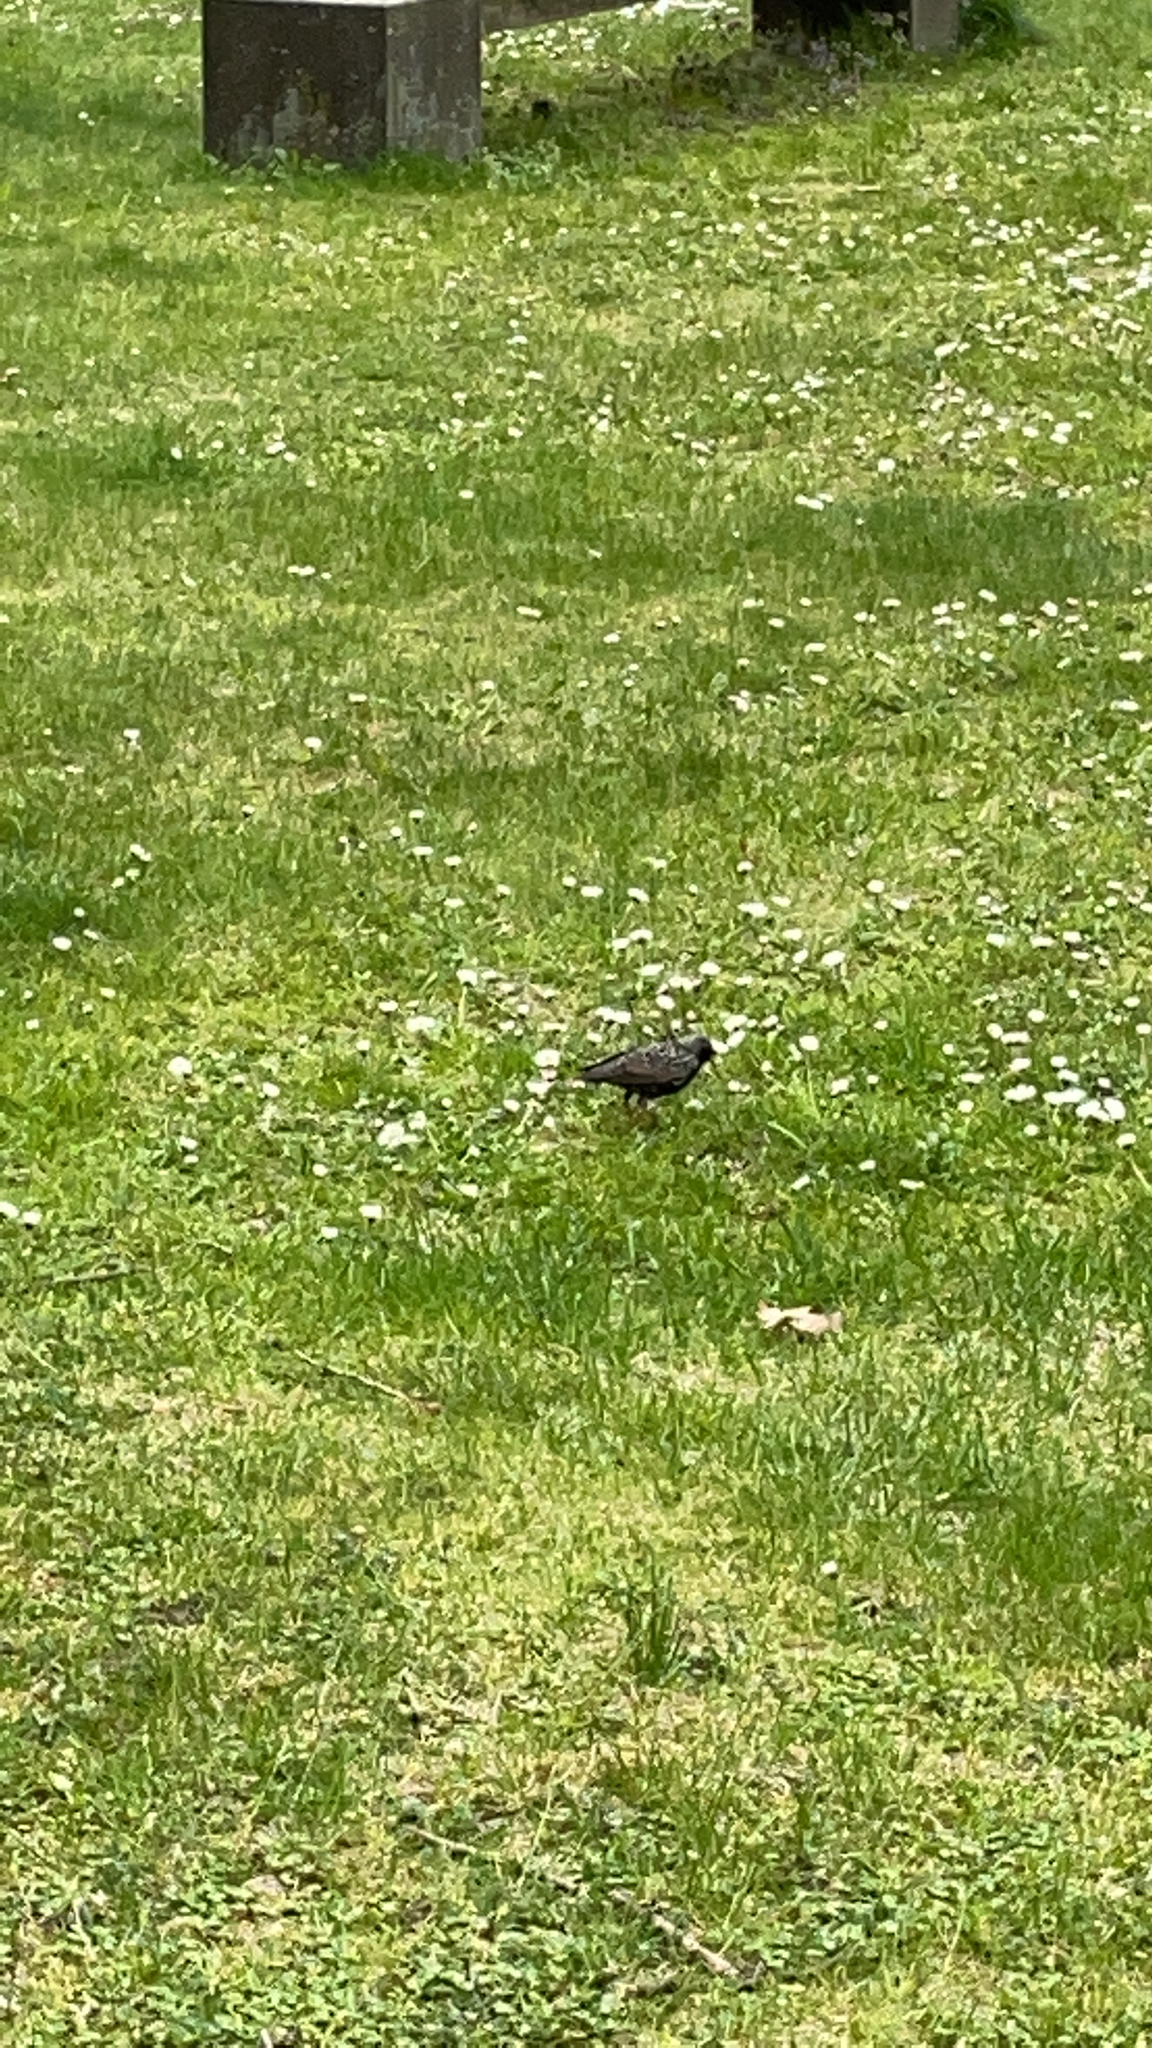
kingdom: Animalia
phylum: Chordata
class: Aves
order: Passeriformes
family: Sturnidae
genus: Sturnus
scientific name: Sturnus vulgaris
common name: Common starling
